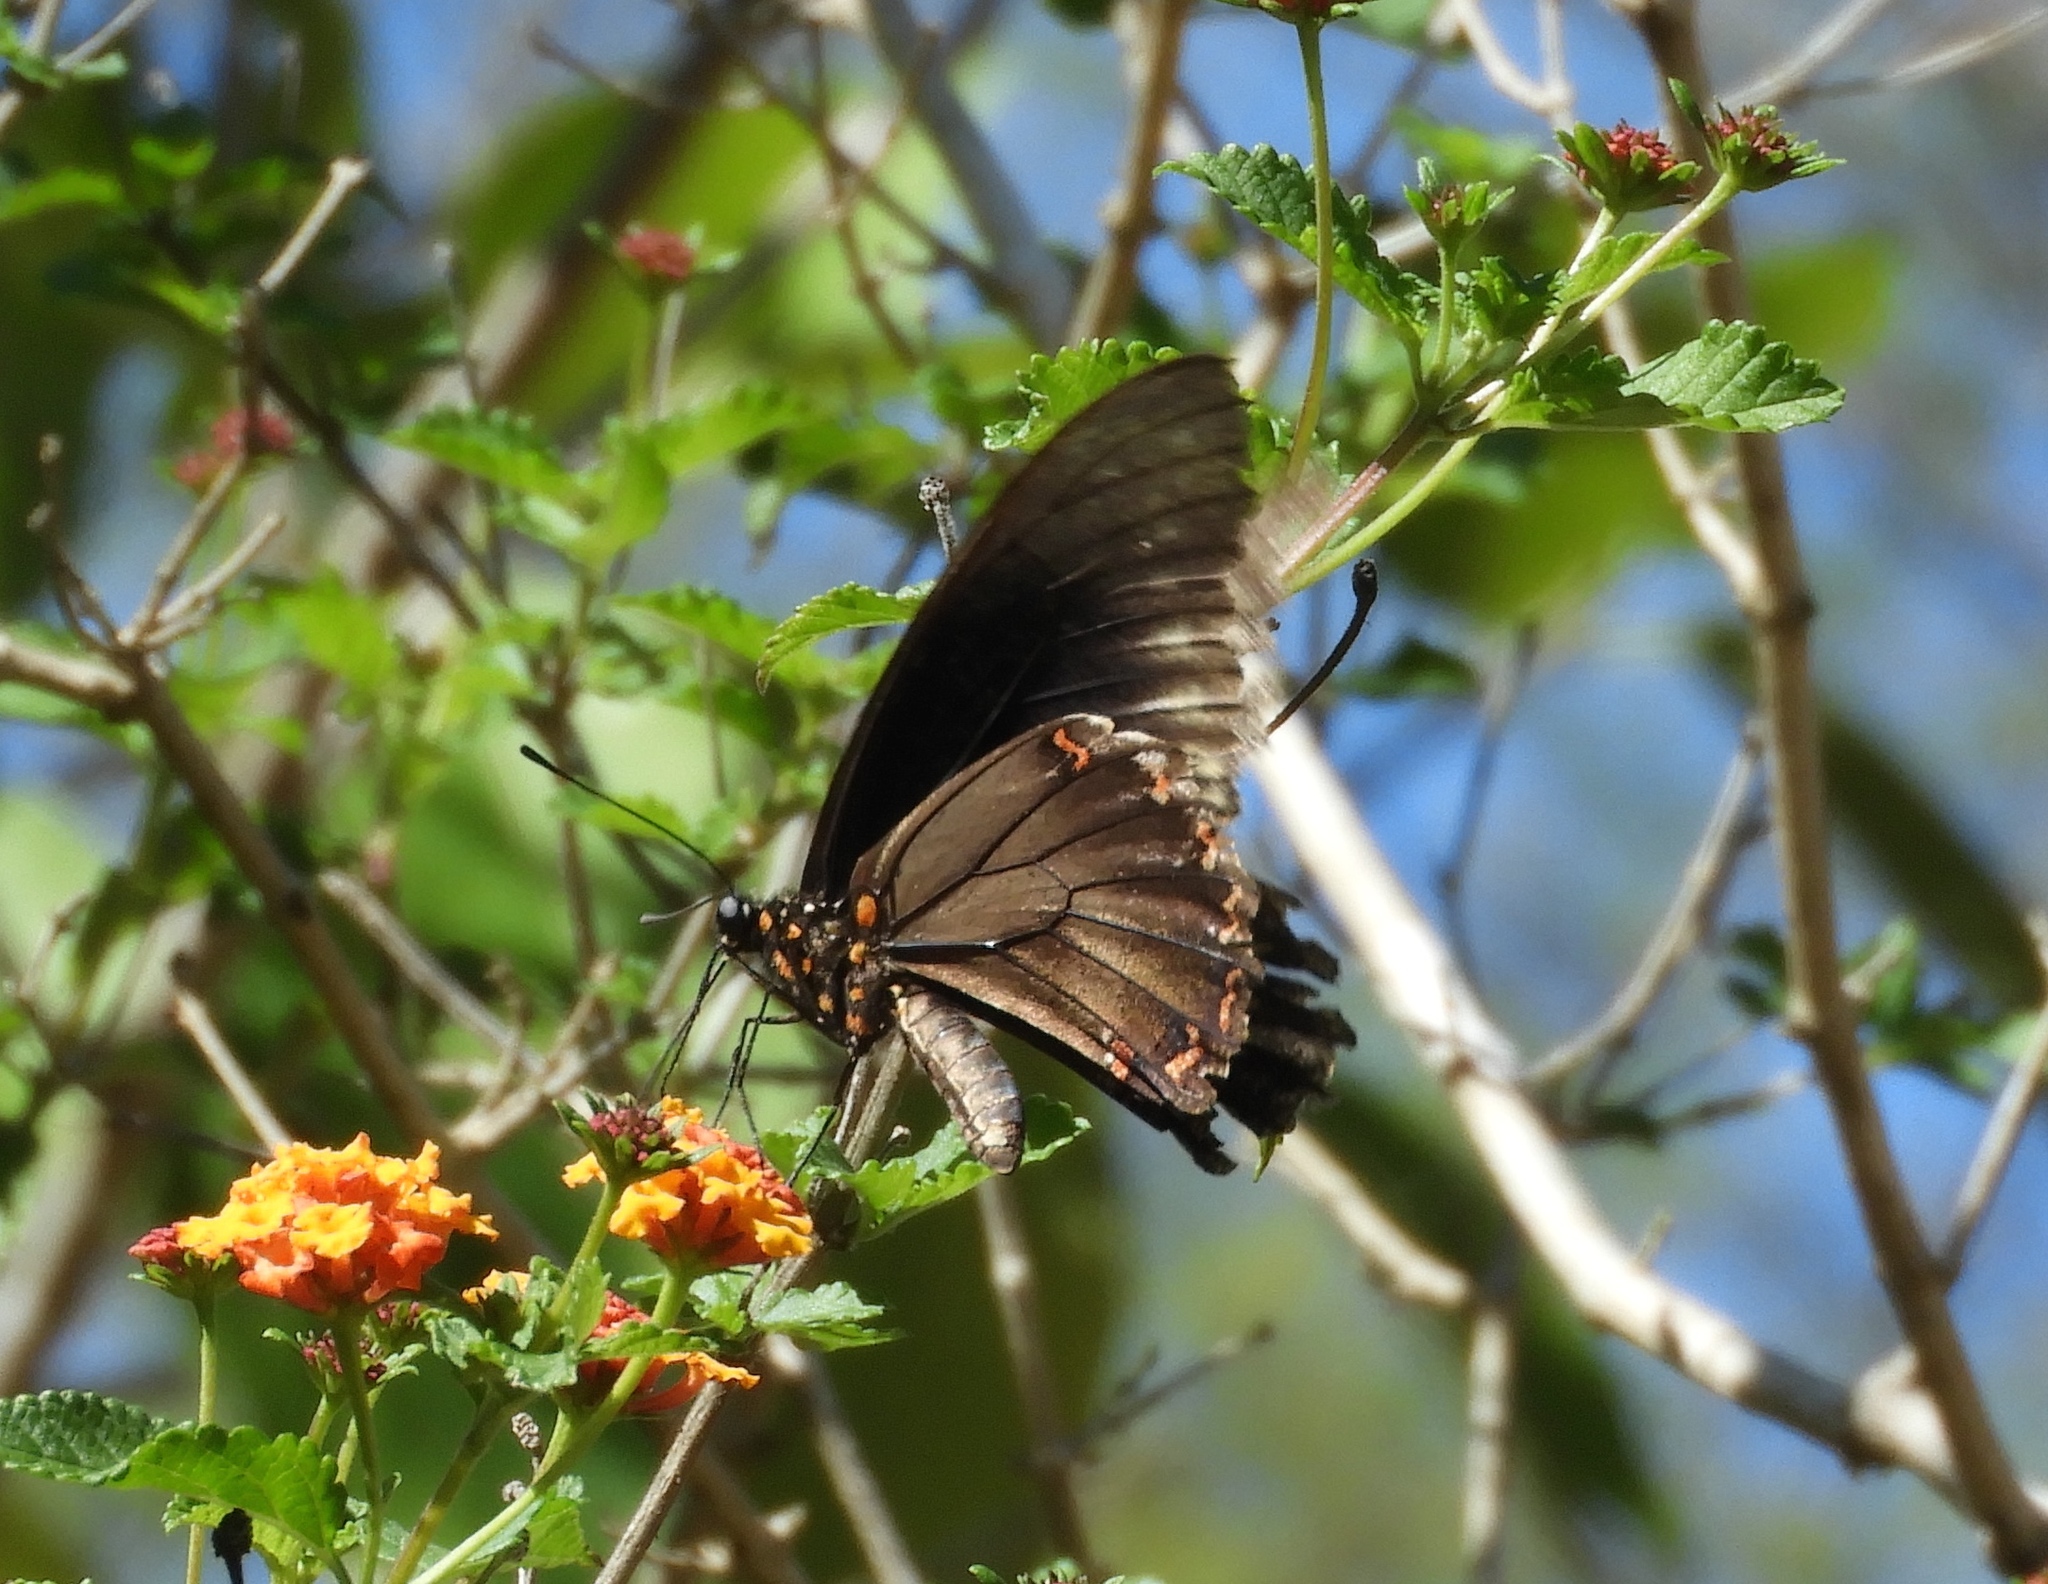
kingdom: Animalia
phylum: Arthropoda
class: Insecta
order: Lepidoptera
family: Papilionidae
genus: Battus
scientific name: Battus polydamas
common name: Polydamas swallowtail
